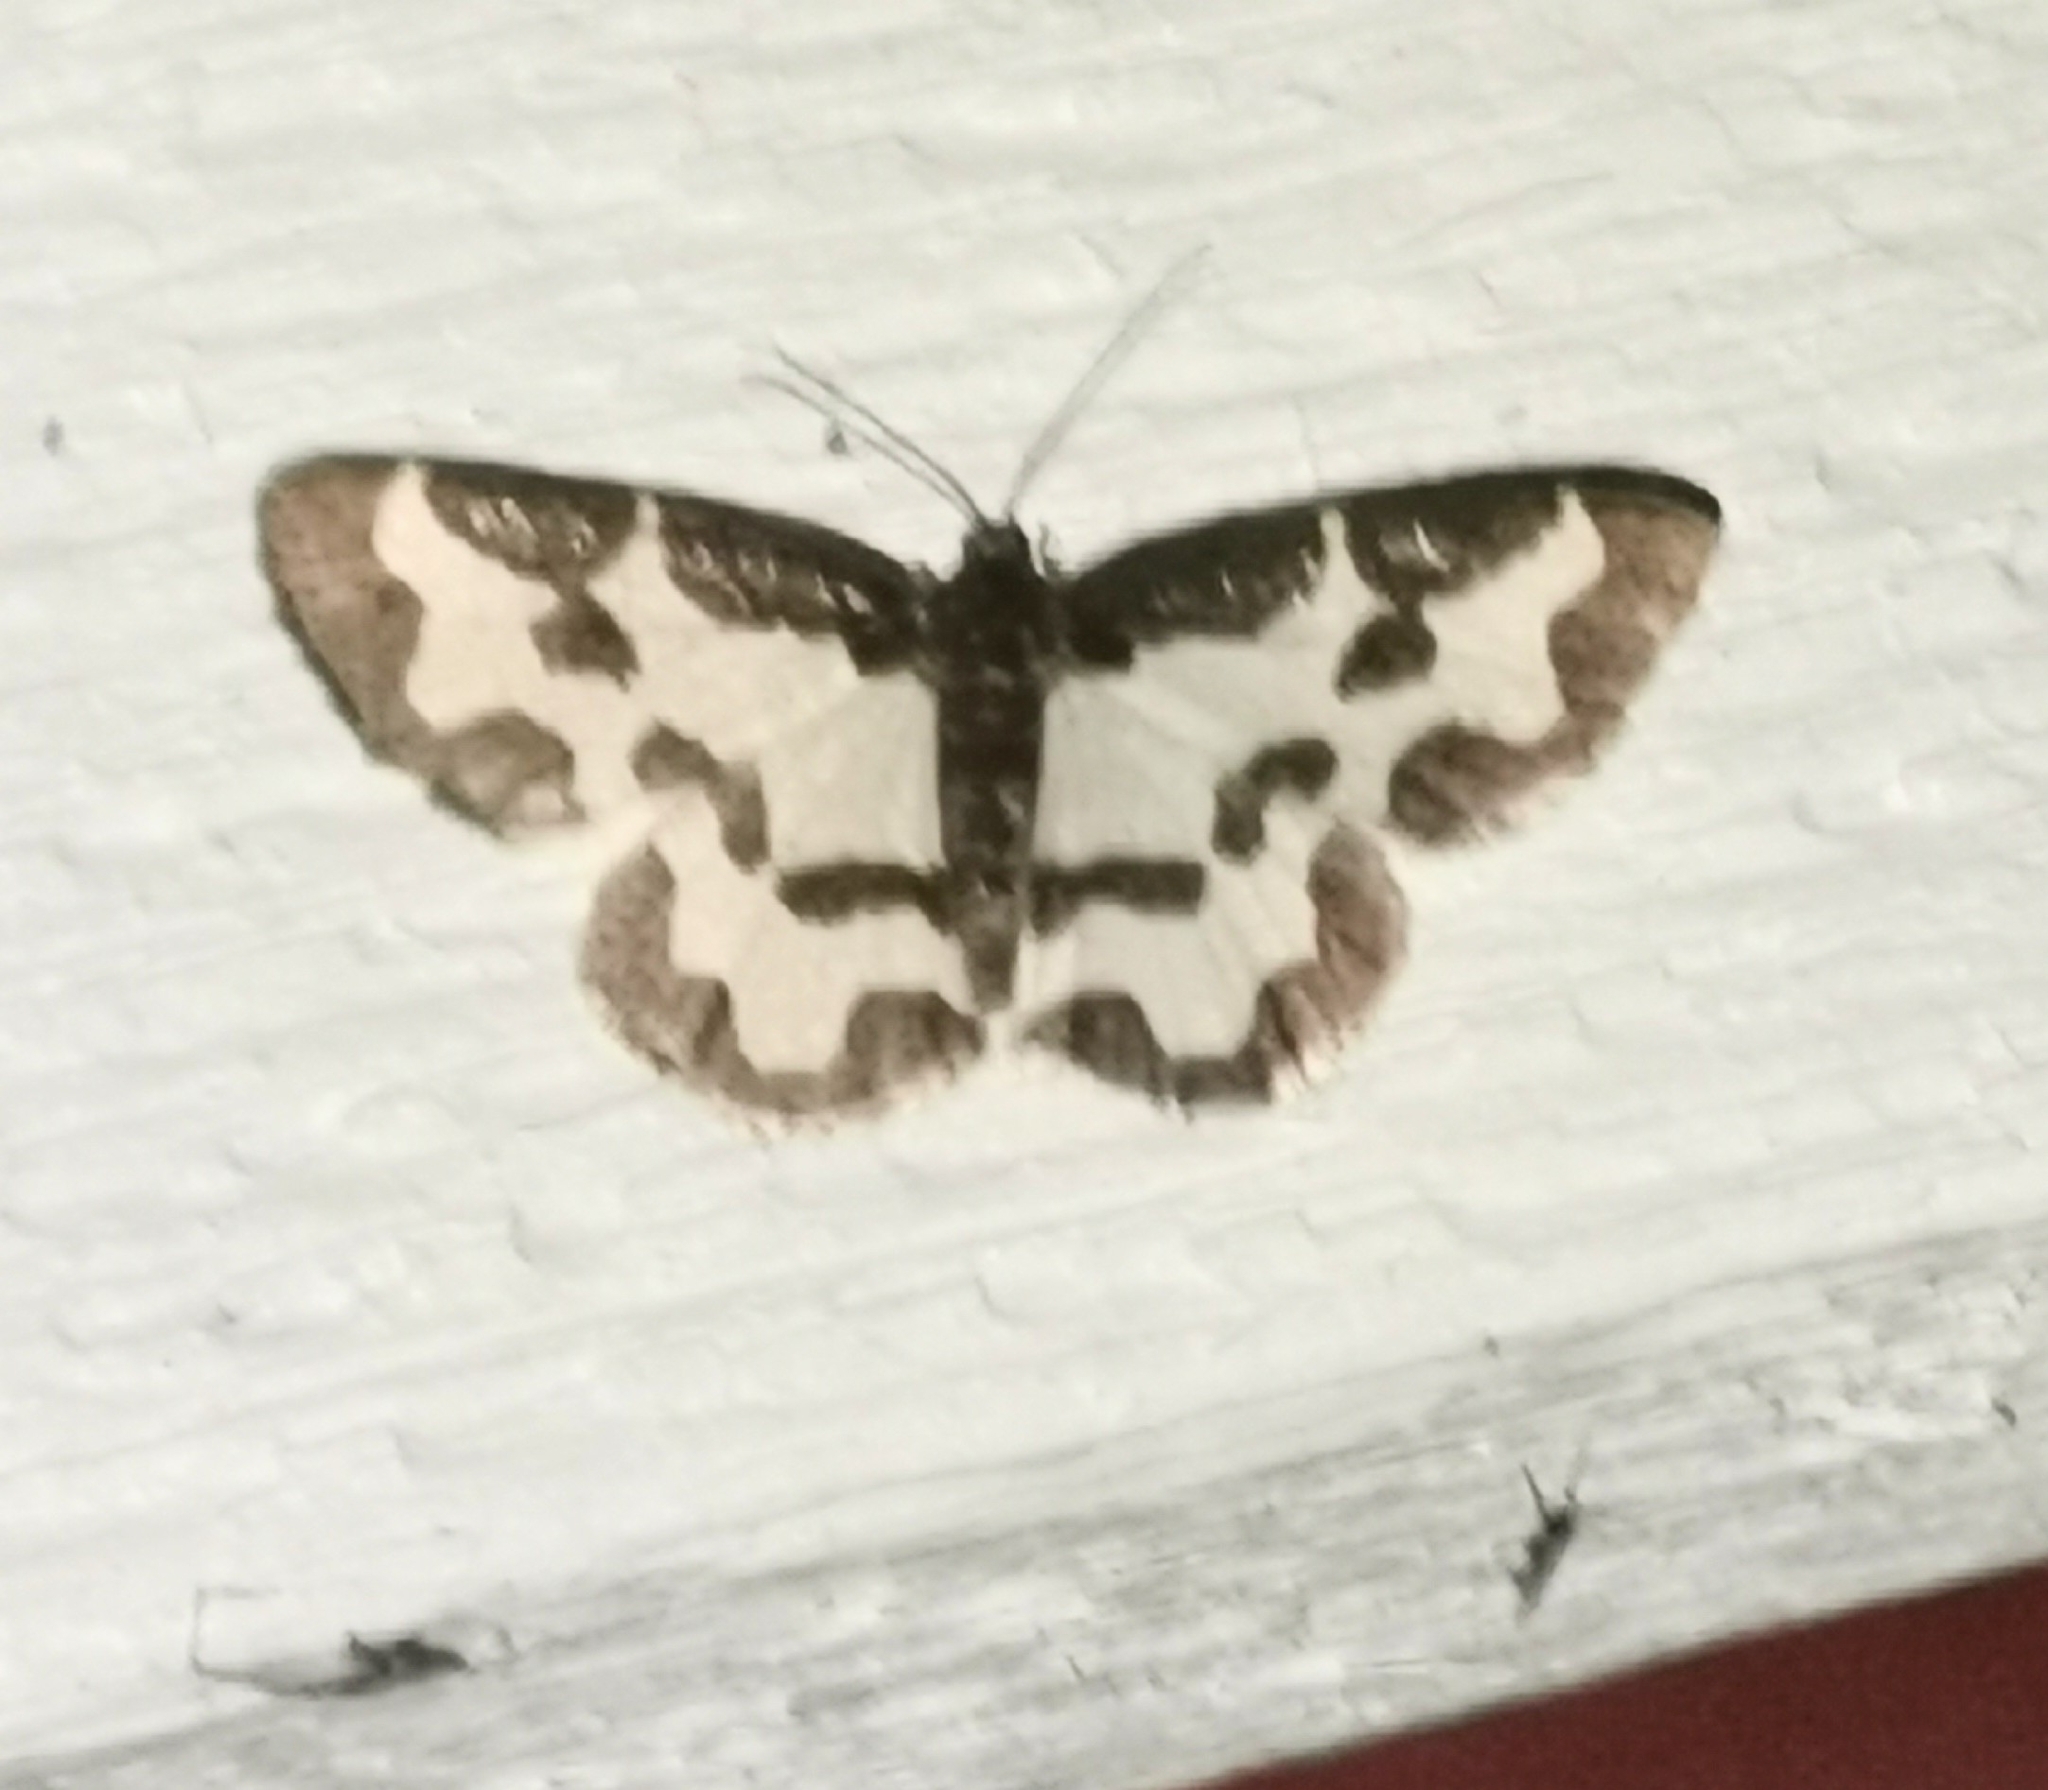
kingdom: Animalia
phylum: Arthropoda
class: Insecta
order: Lepidoptera
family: Geometridae
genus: Lomaspilis
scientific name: Lomaspilis marginata
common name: Clouded border
